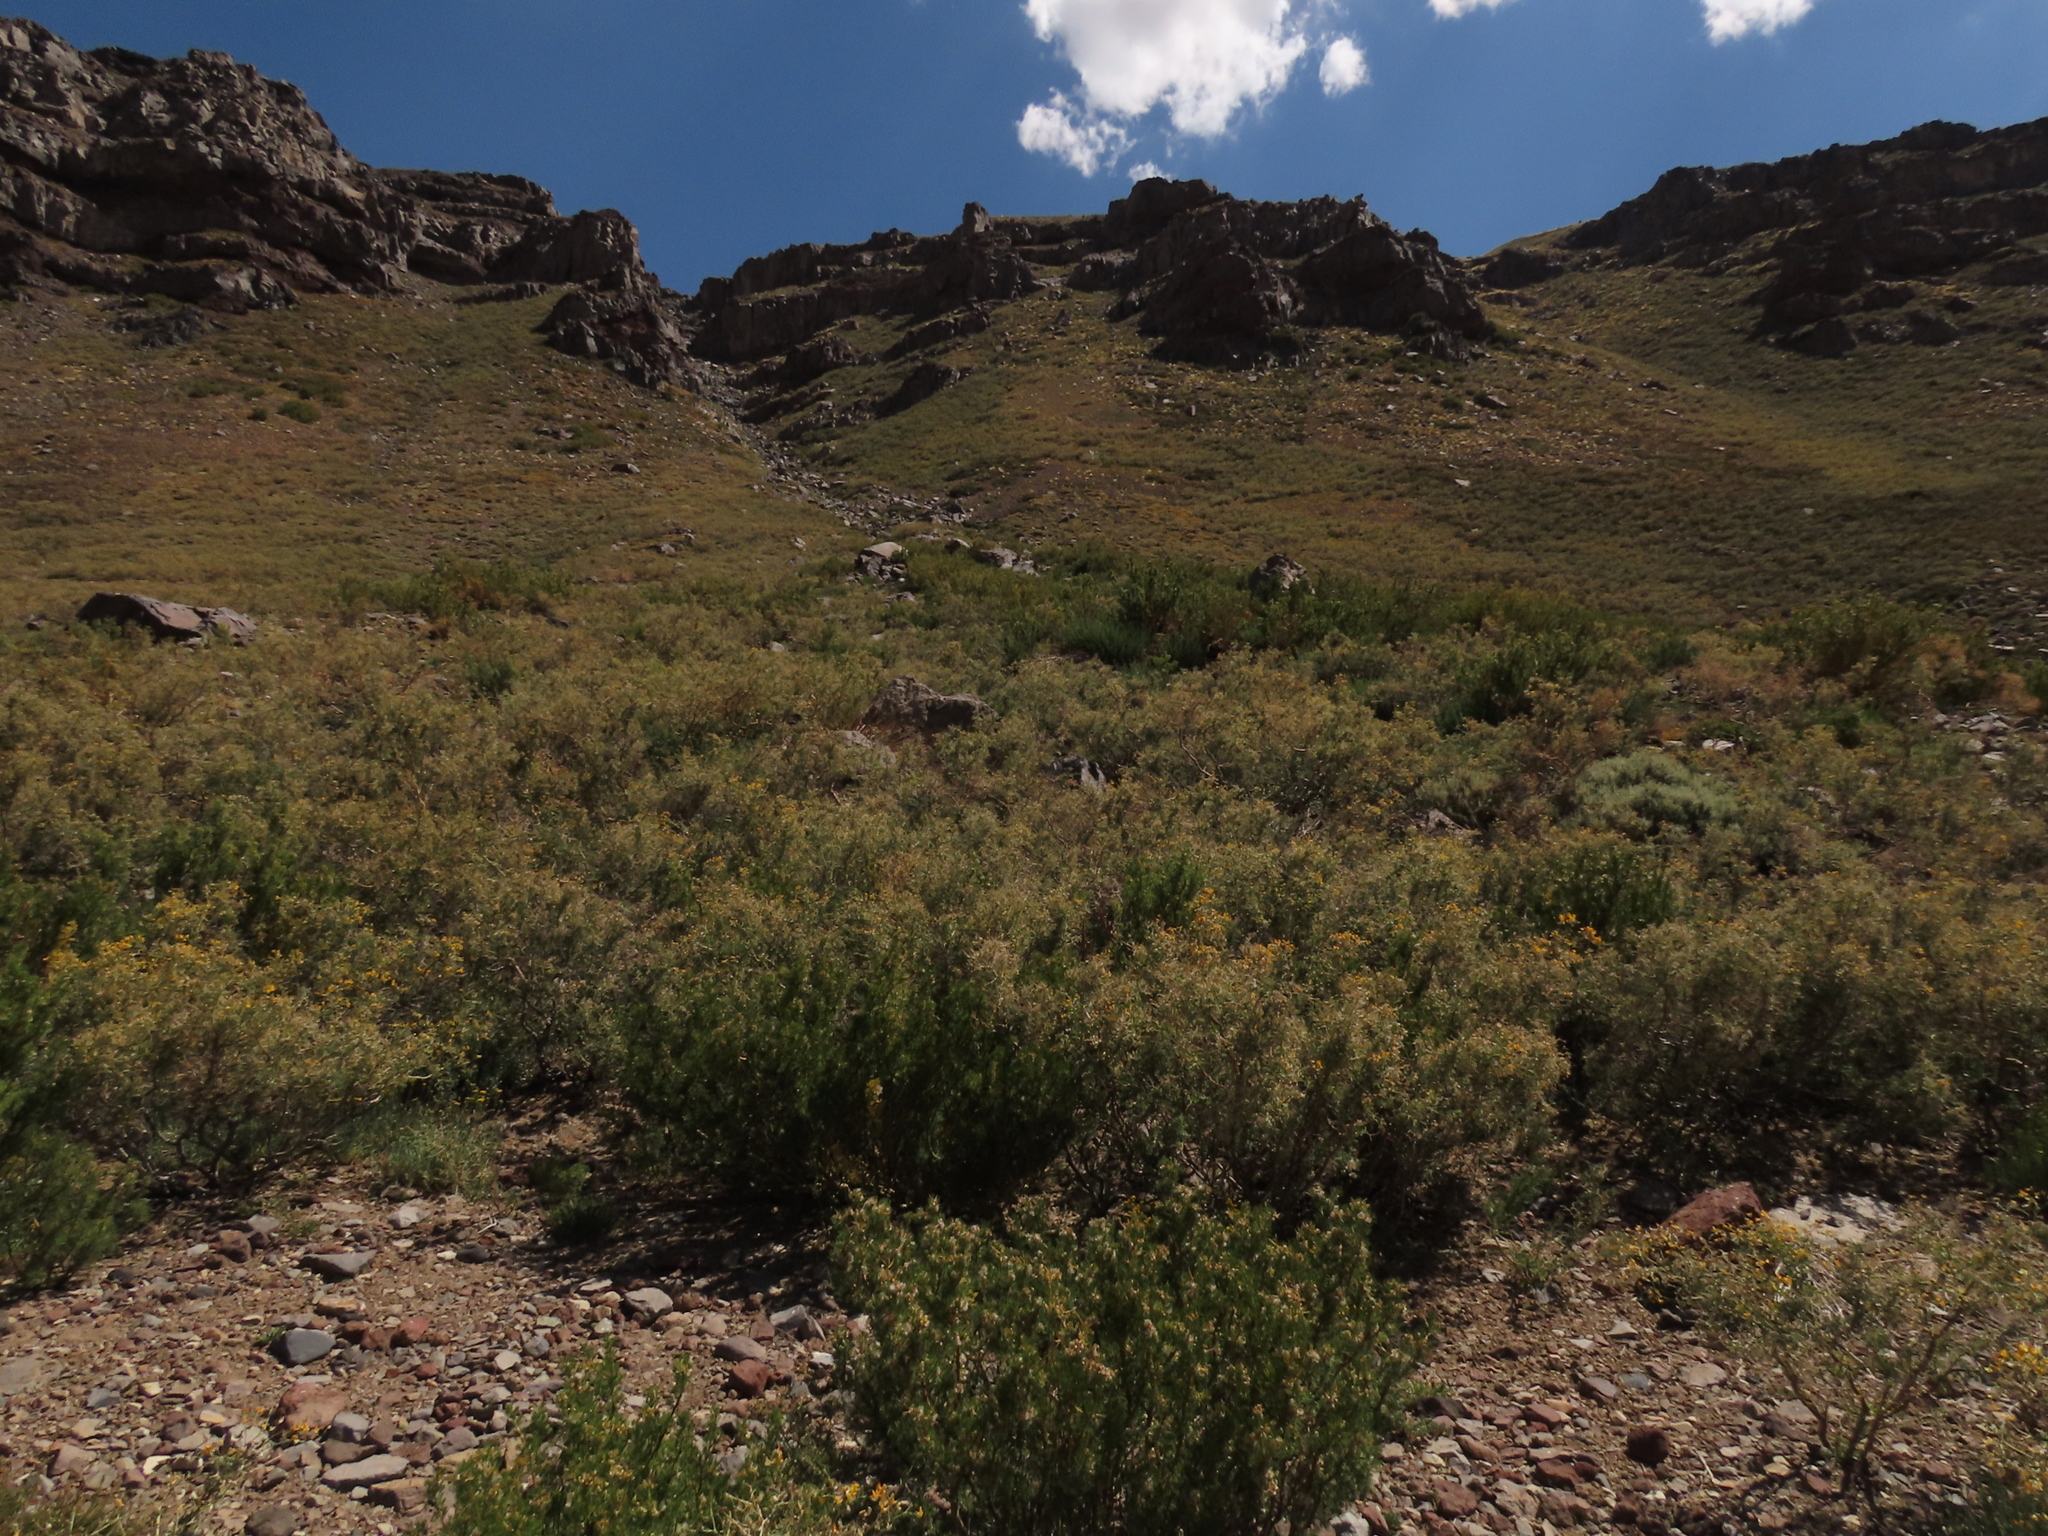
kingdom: Plantae
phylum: Tracheophyta
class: Magnoliopsida
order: Fabales
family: Fabaceae
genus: Adesmia
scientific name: Adesmia obovata
